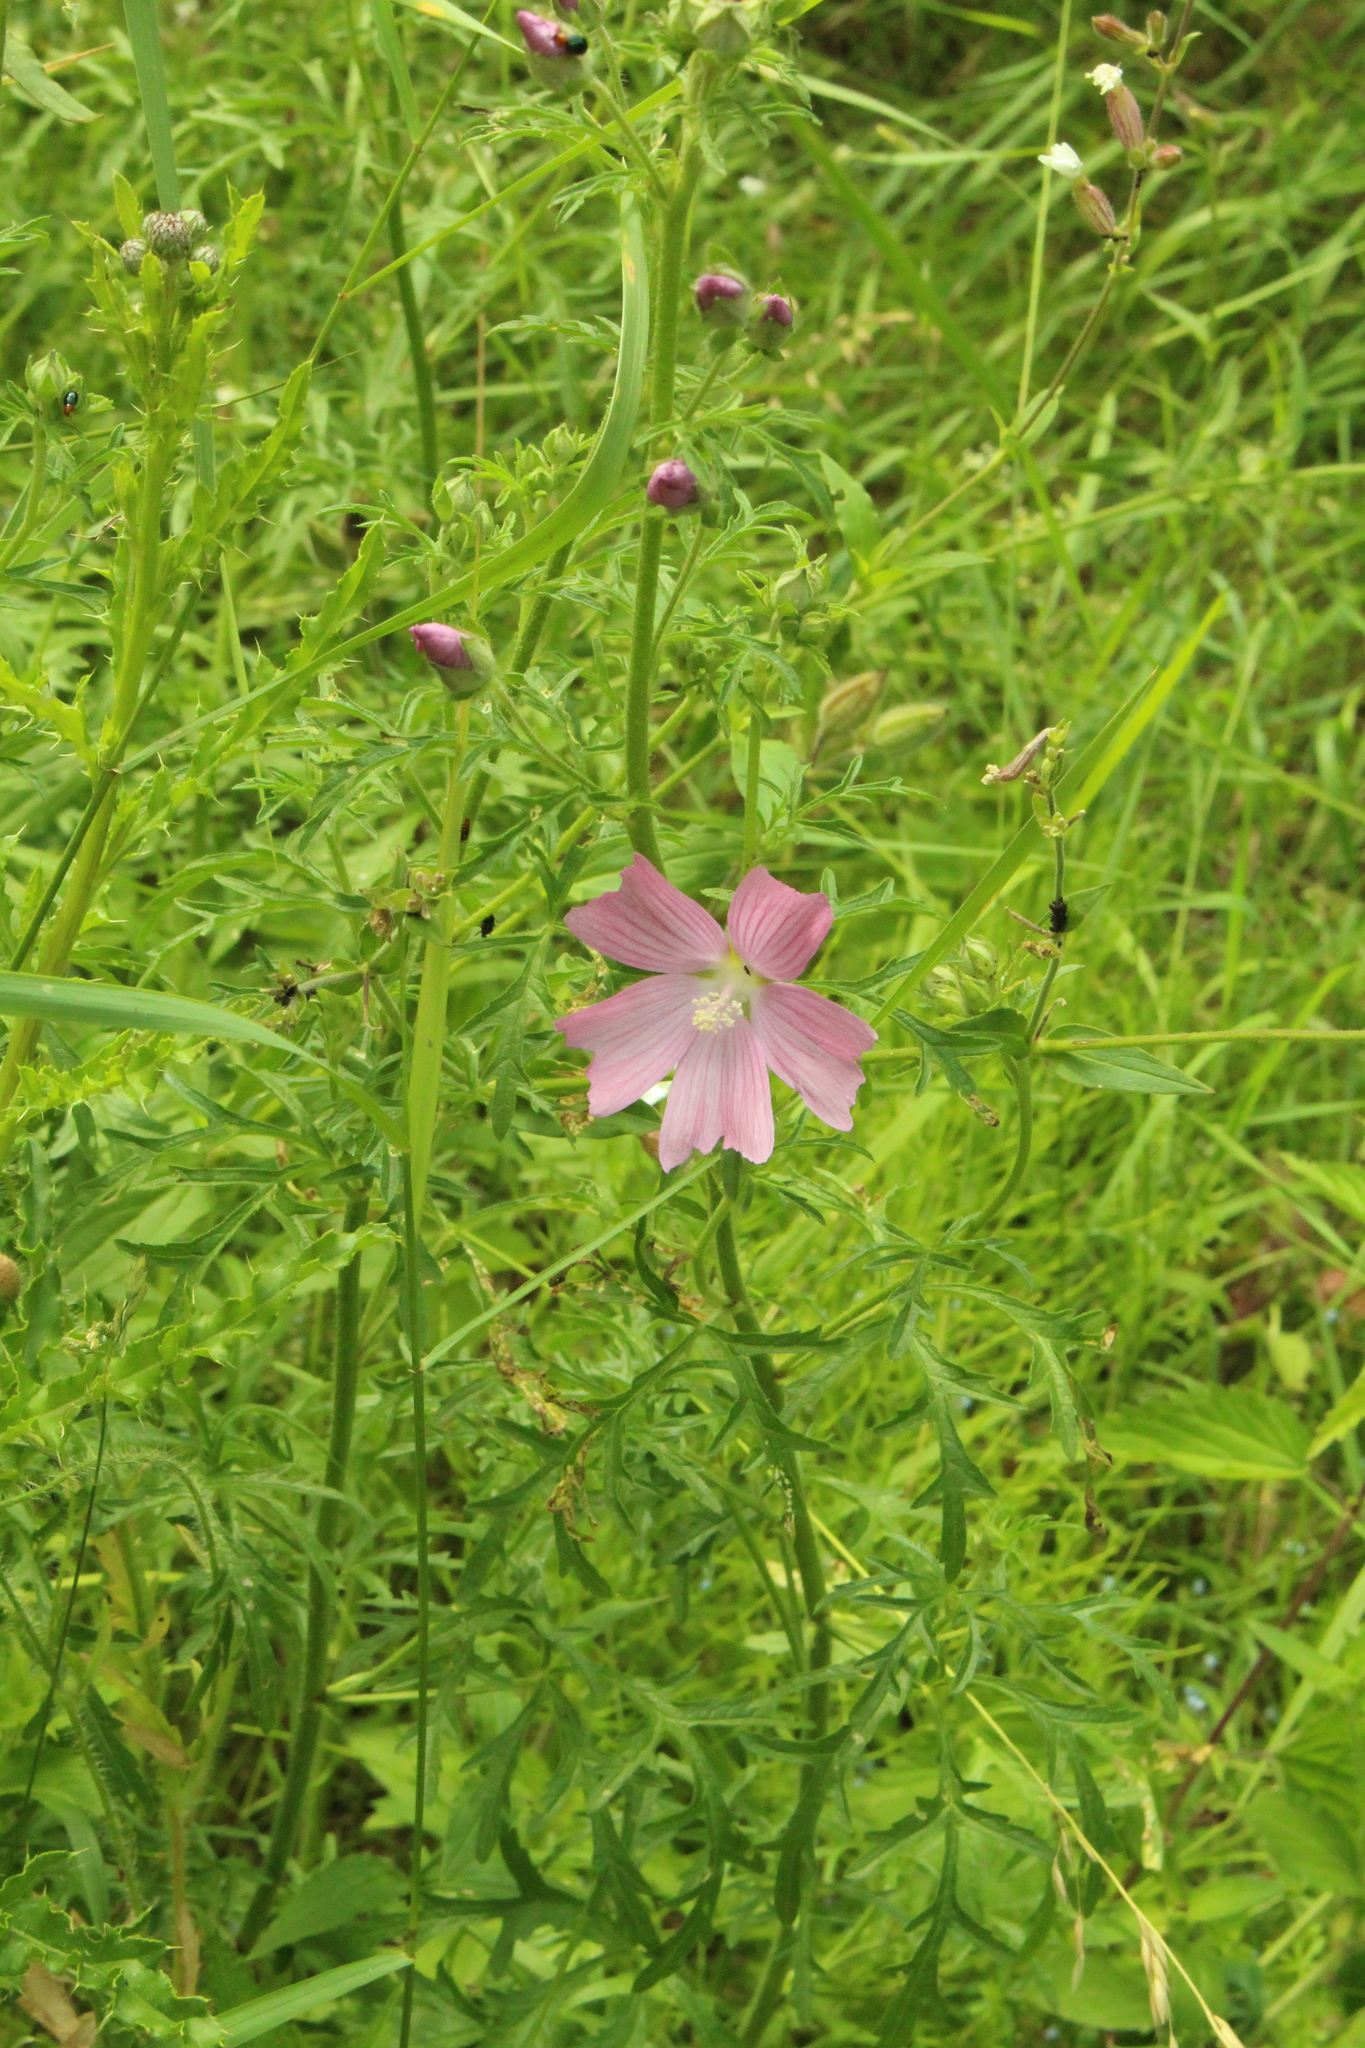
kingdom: Plantae
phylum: Tracheophyta
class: Magnoliopsida
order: Malvales
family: Malvaceae
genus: Malva
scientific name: Malva alcea
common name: Greater musk-mallow
